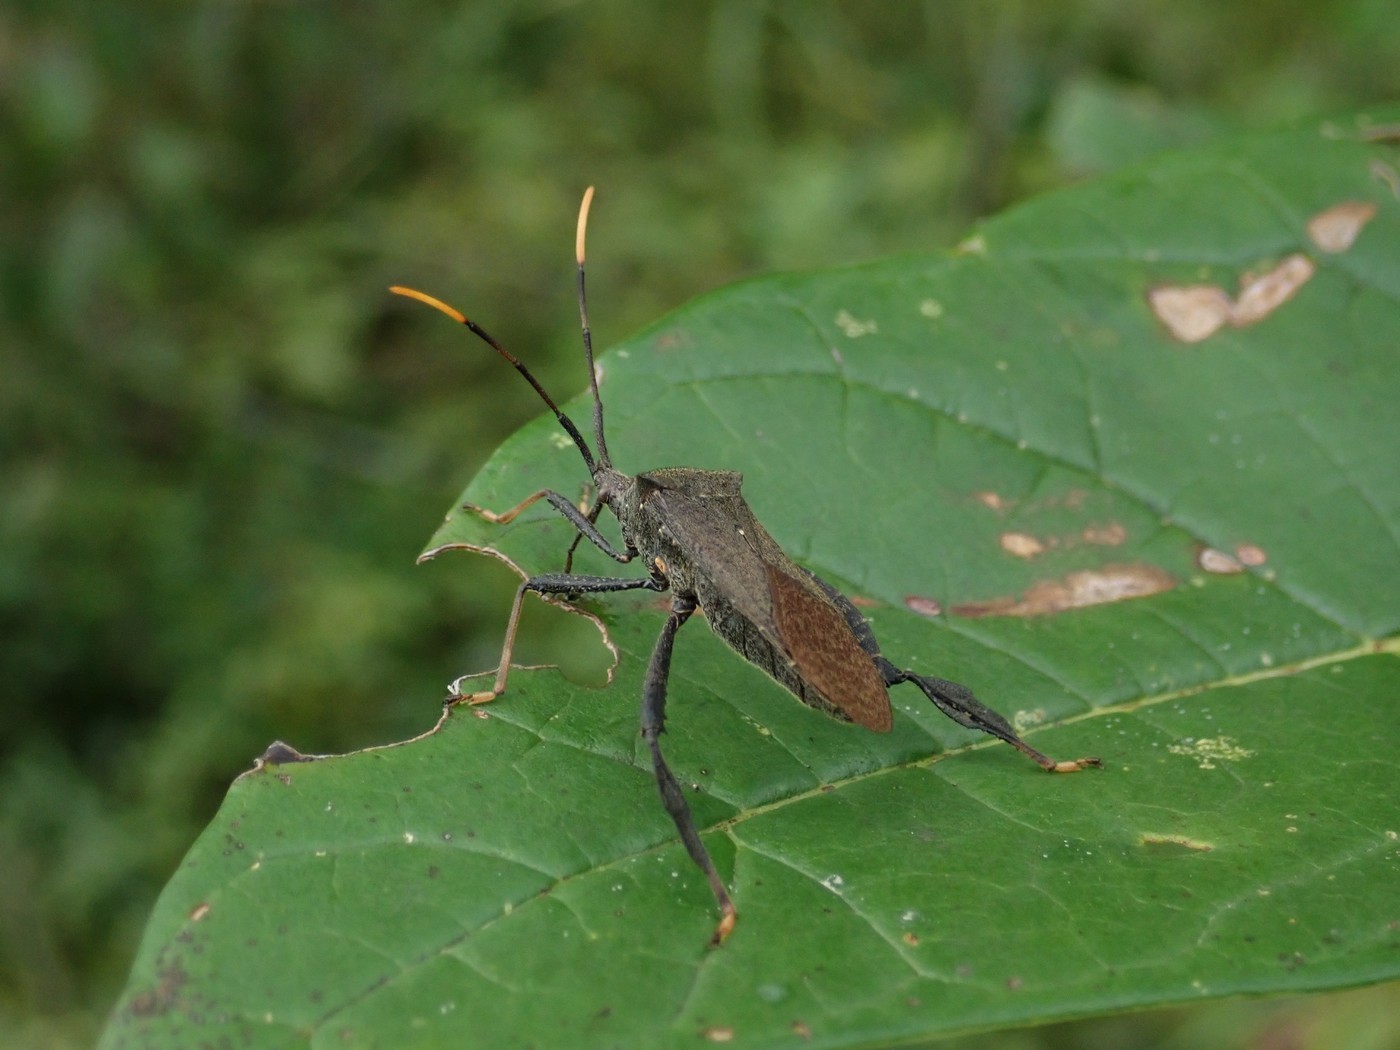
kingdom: Animalia
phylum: Arthropoda
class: Insecta
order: Hemiptera
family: Coreidae
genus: Acanthocephala
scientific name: Acanthocephala terminalis
